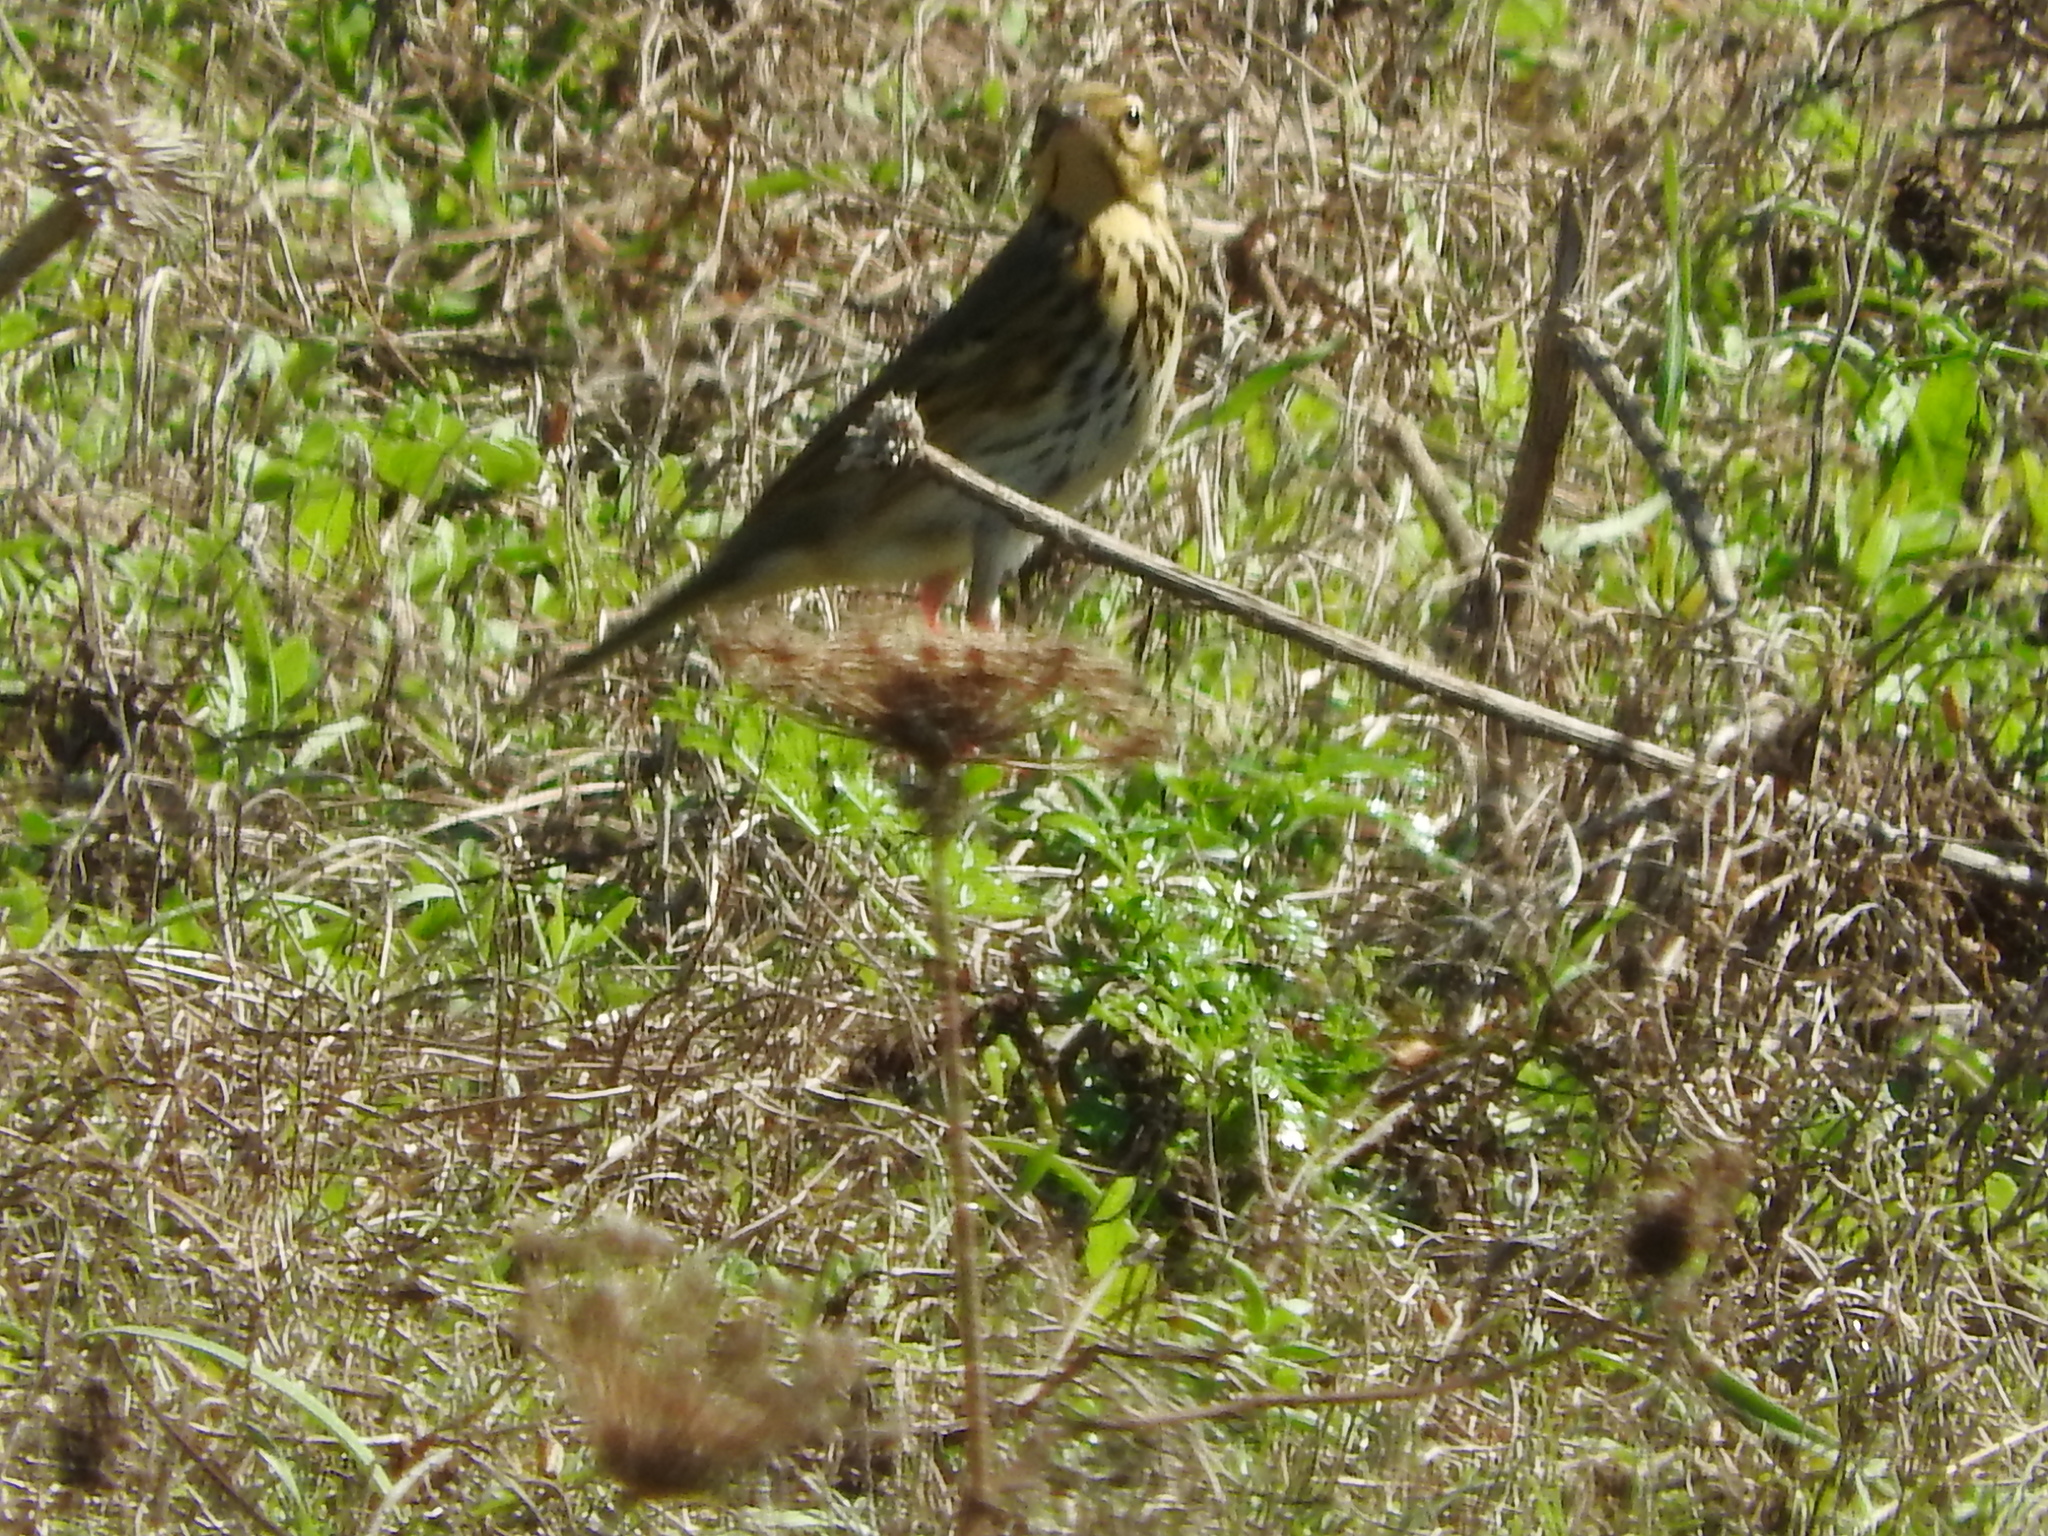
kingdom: Animalia
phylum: Chordata
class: Aves
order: Passeriformes
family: Motacillidae
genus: Anthus
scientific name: Anthus hodgsoni
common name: Olive-backed pipit
